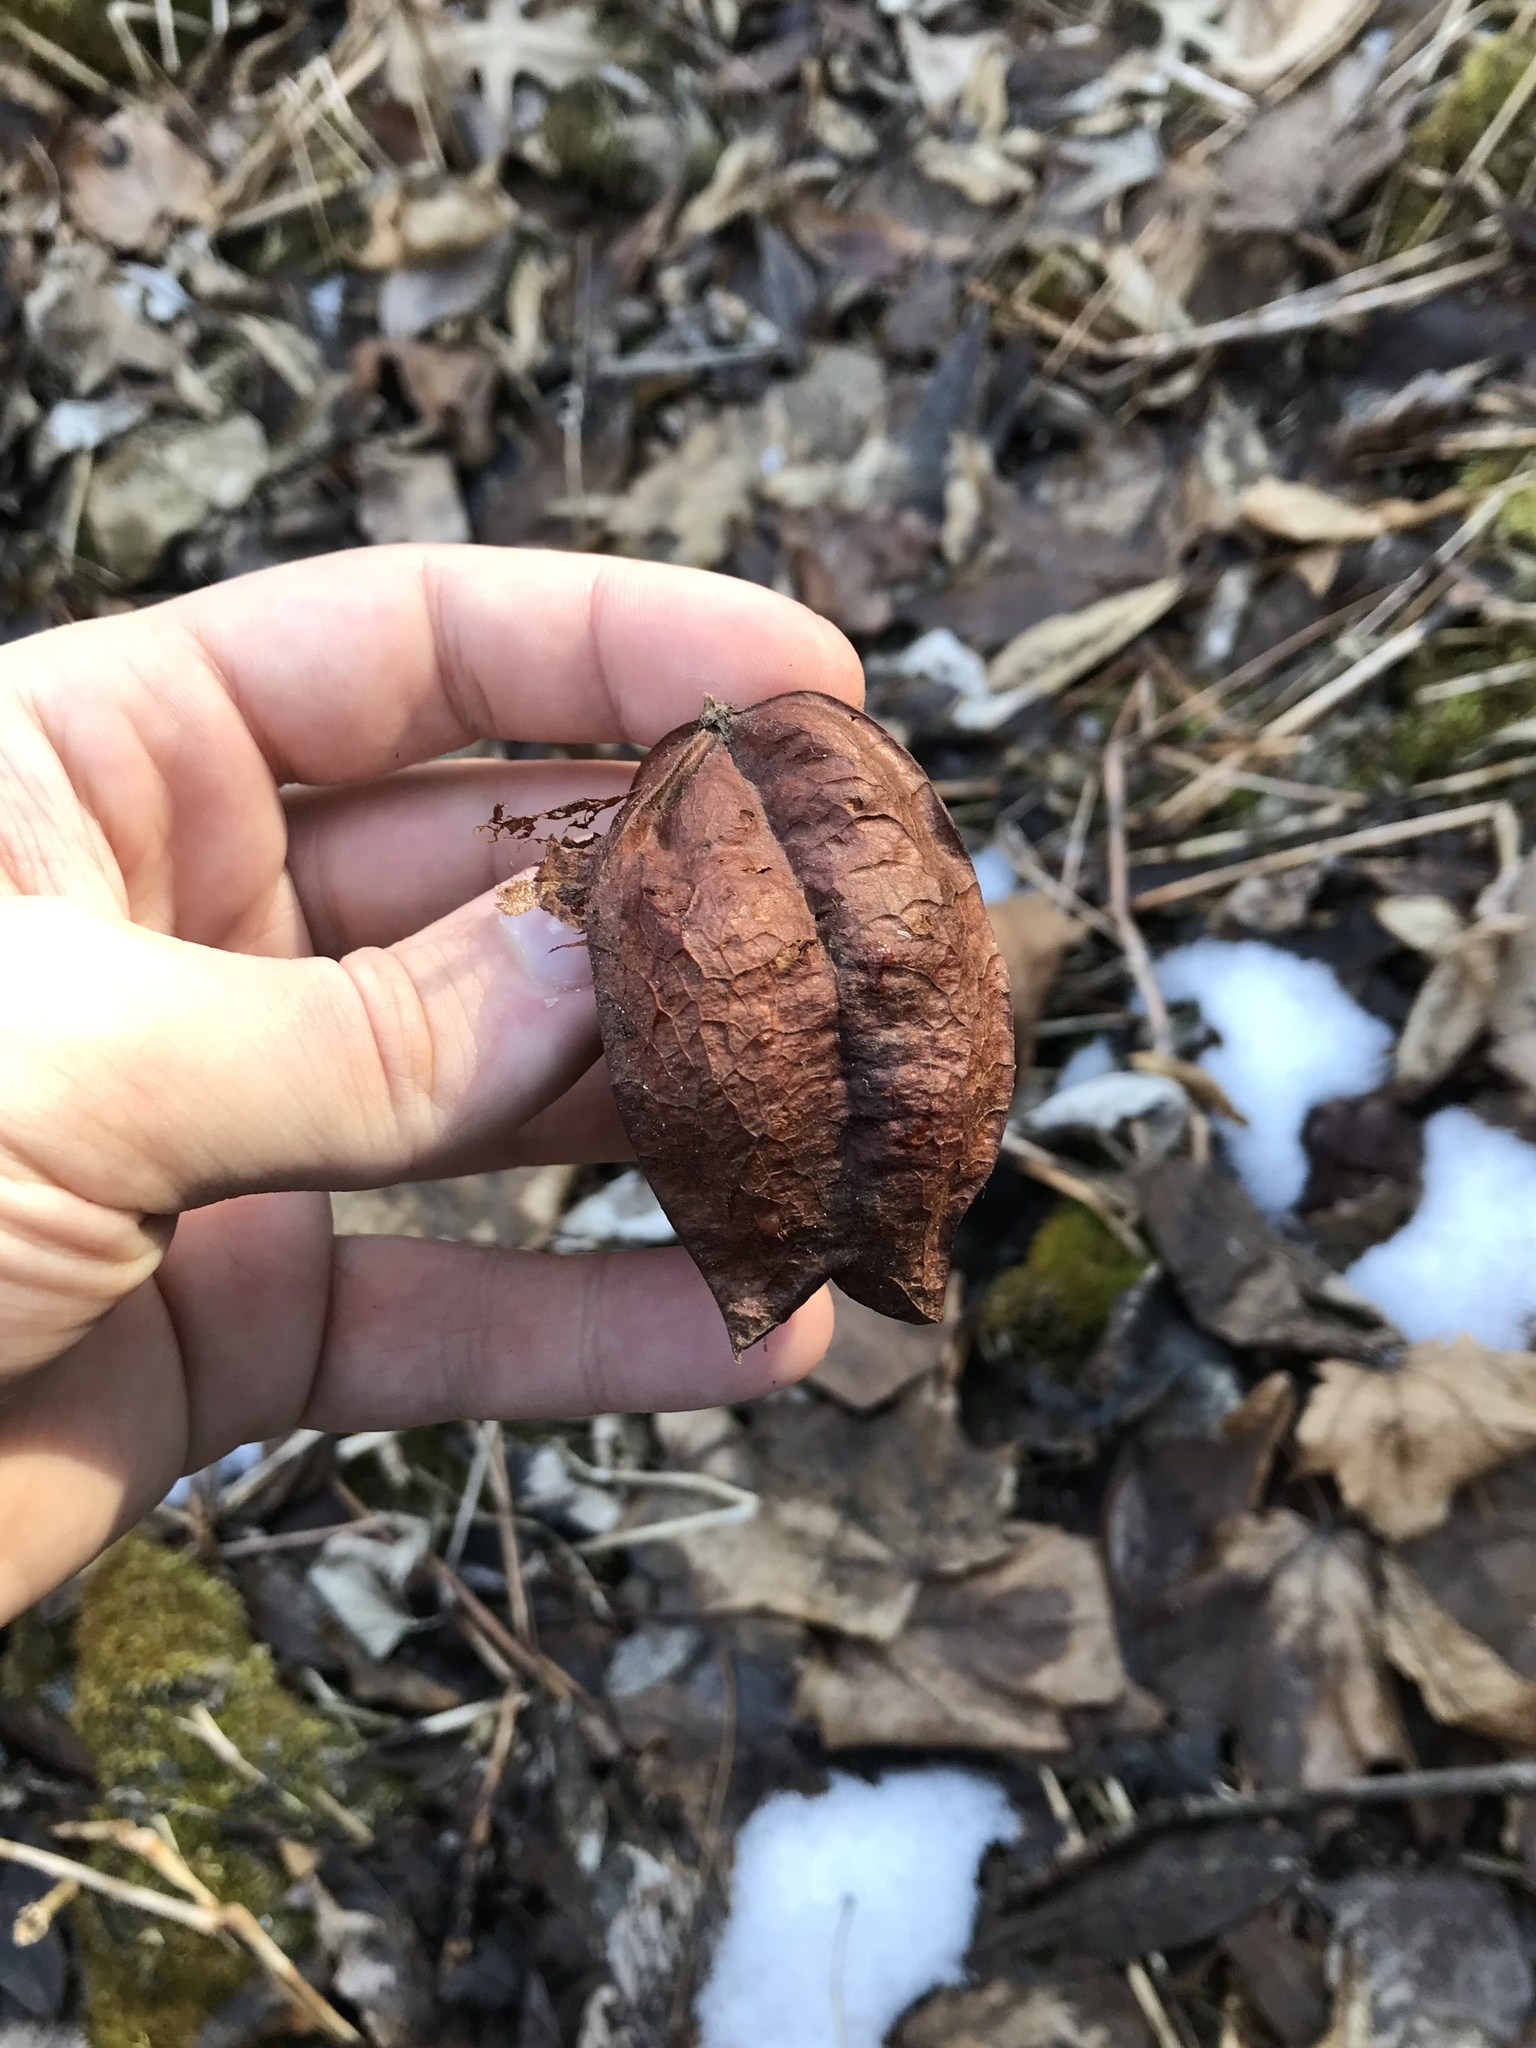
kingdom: Plantae
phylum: Tracheophyta
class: Magnoliopsida
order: Crossosomatales
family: Staphyleaceae
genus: Staphylea
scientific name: Staphylea trifolia
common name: American bladdernut
